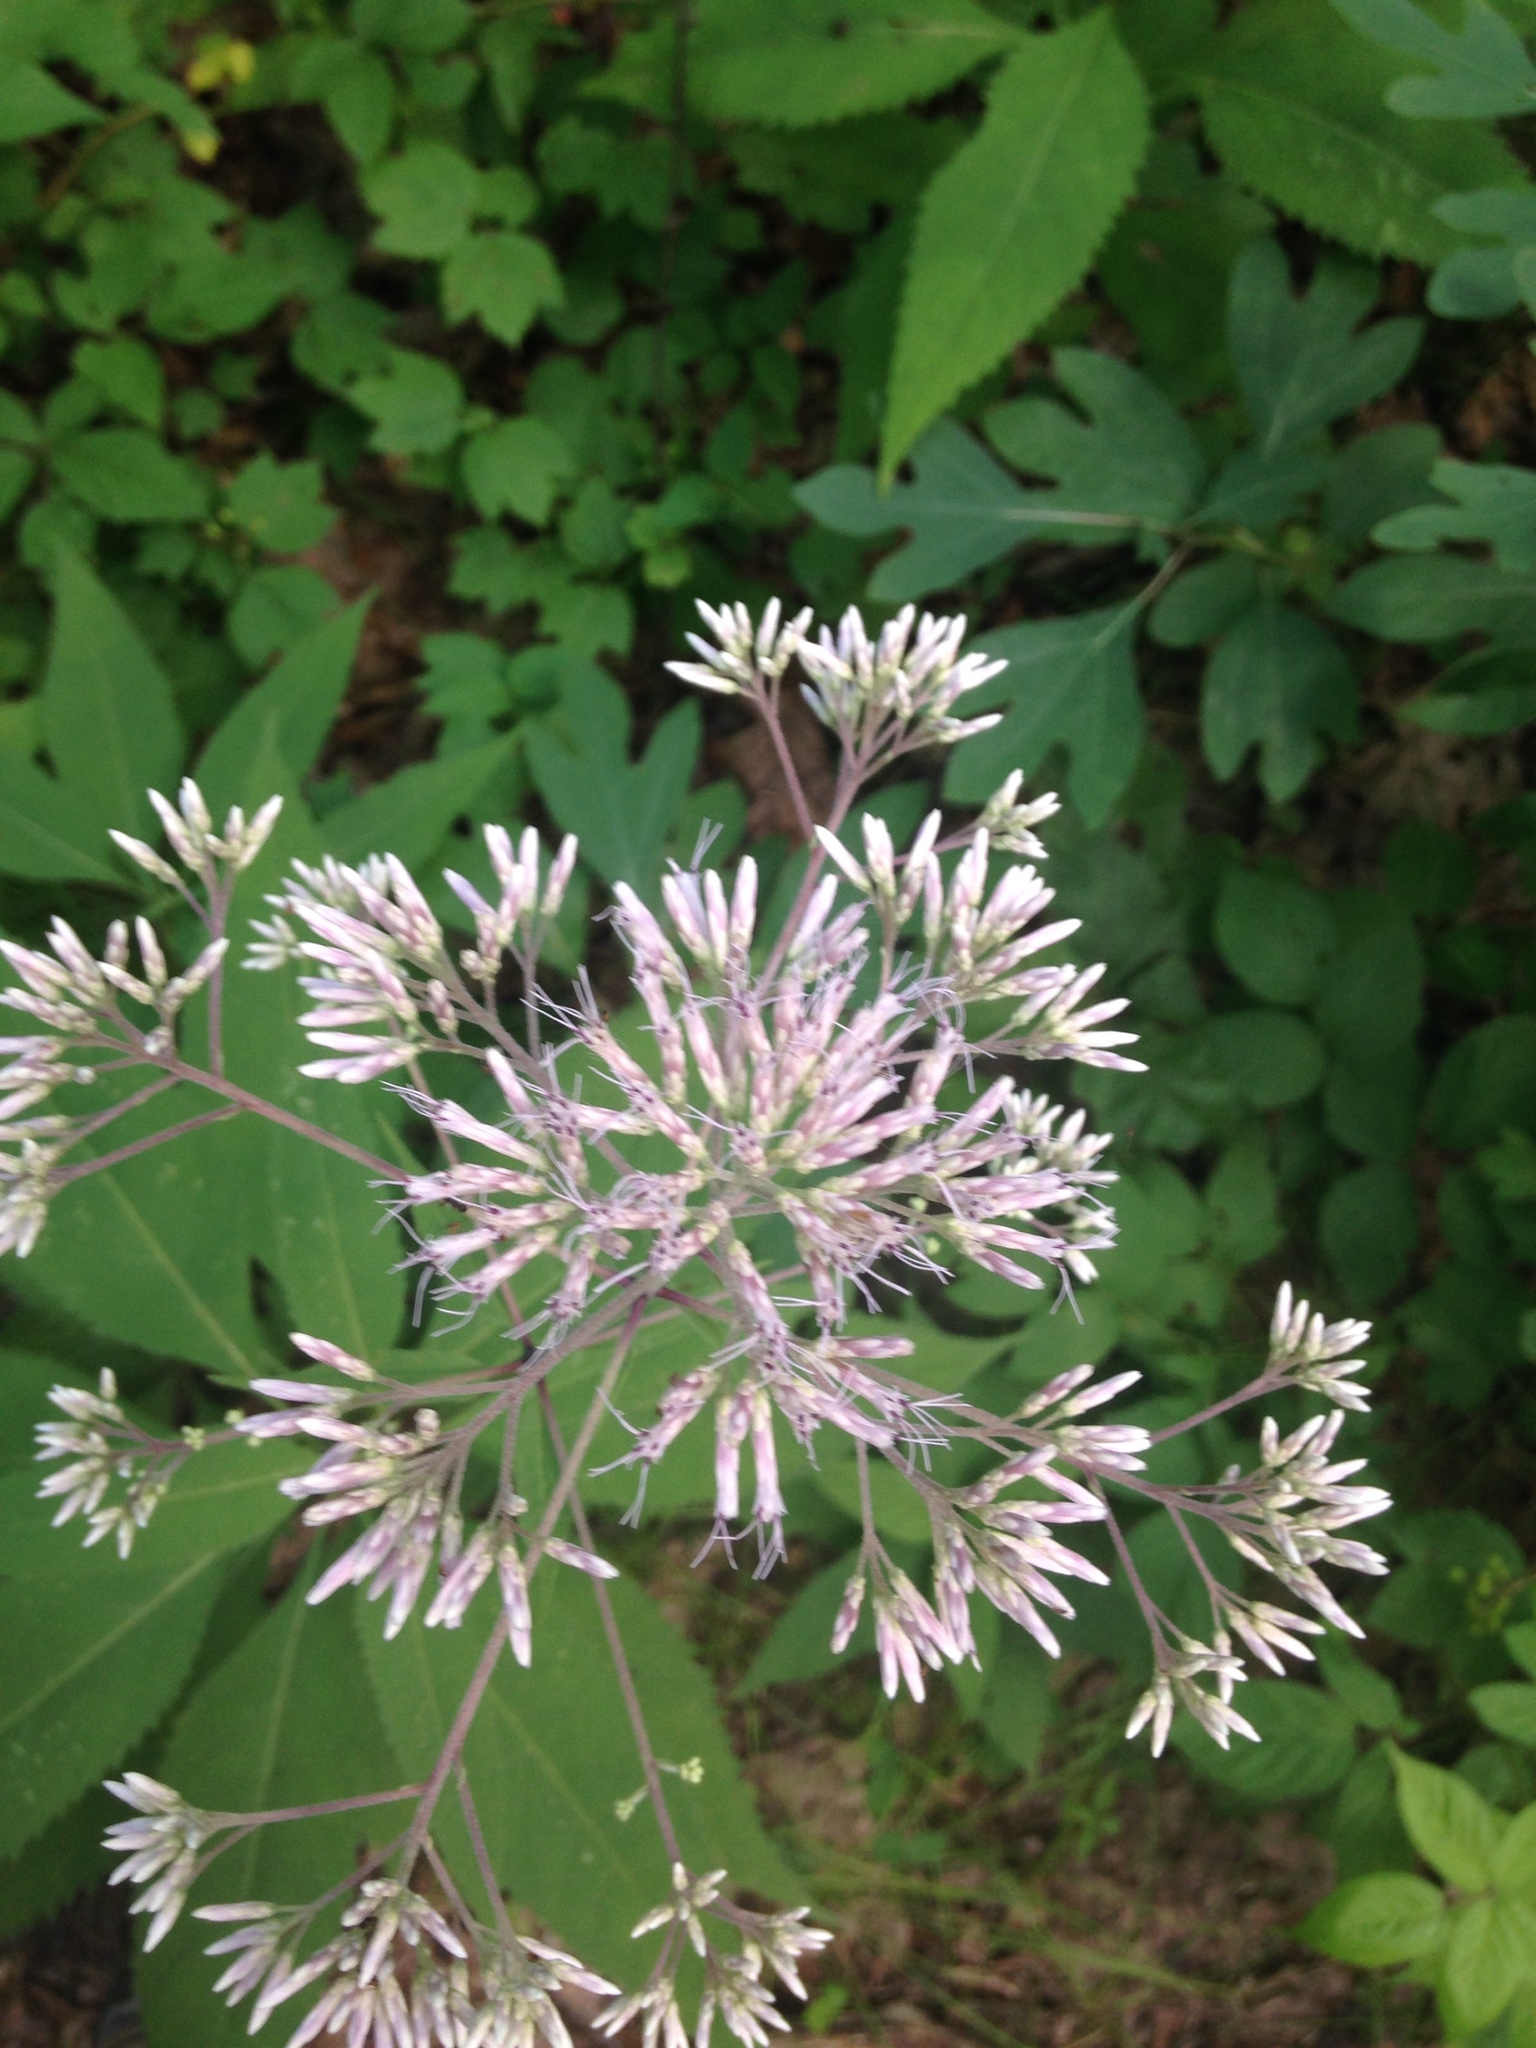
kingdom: Plantae
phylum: Tracheophyta
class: Magnoliopsida
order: Asterales
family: Asteraceae
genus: Eutrochium
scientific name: Eutrochium purpureum
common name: Gravelroot
